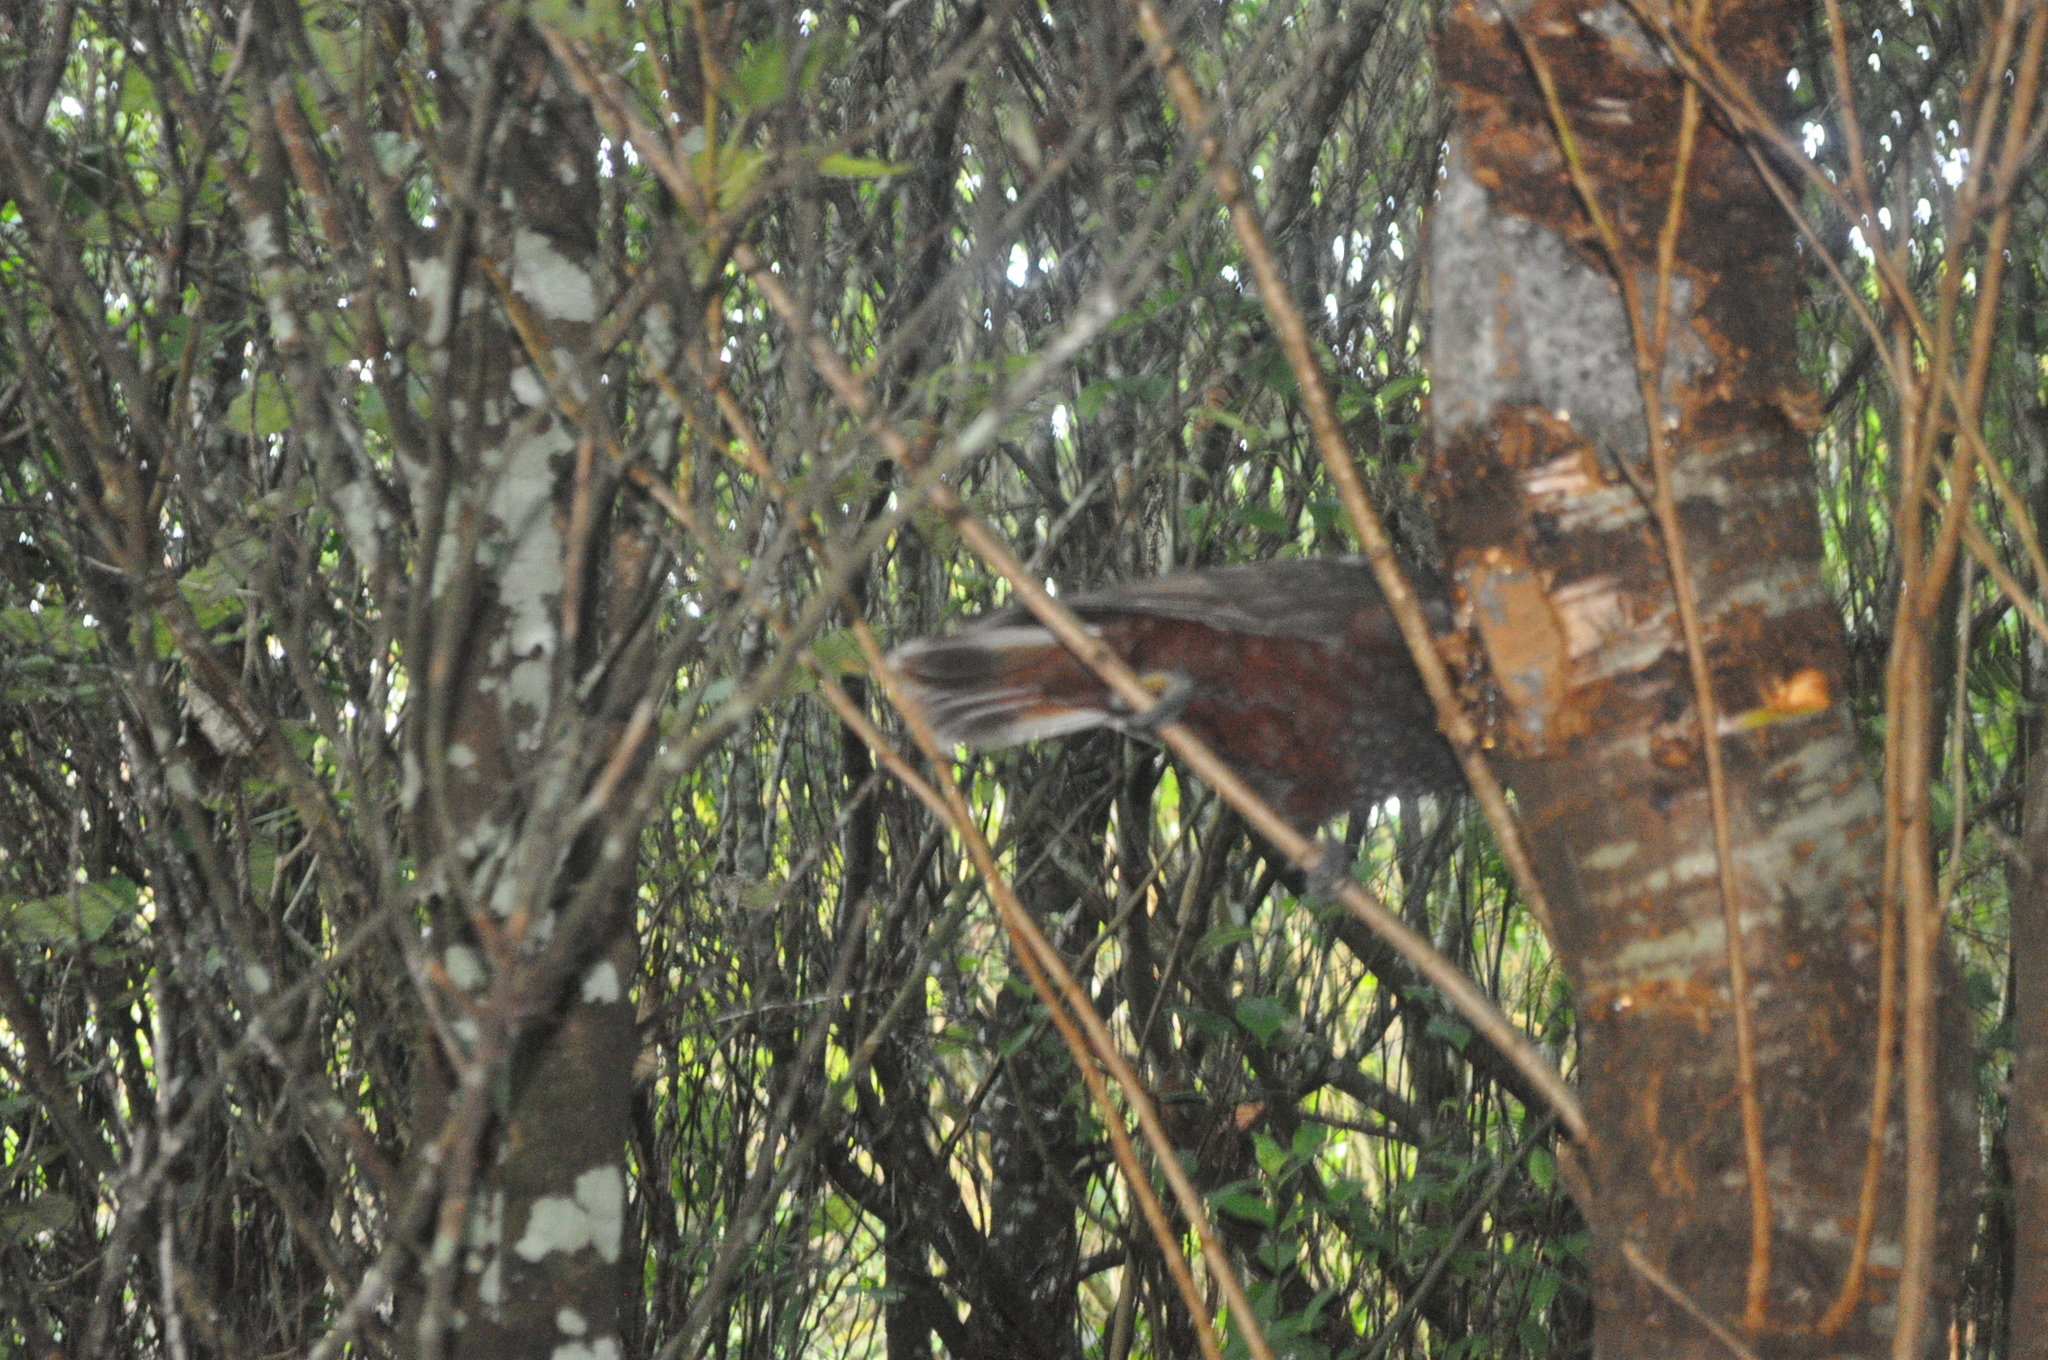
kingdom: Animalia
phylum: Chordata
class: Aves
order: Psittaciformes
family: Psittacidae
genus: Nestor
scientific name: Nestor meridionalis
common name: New zealand kaka
